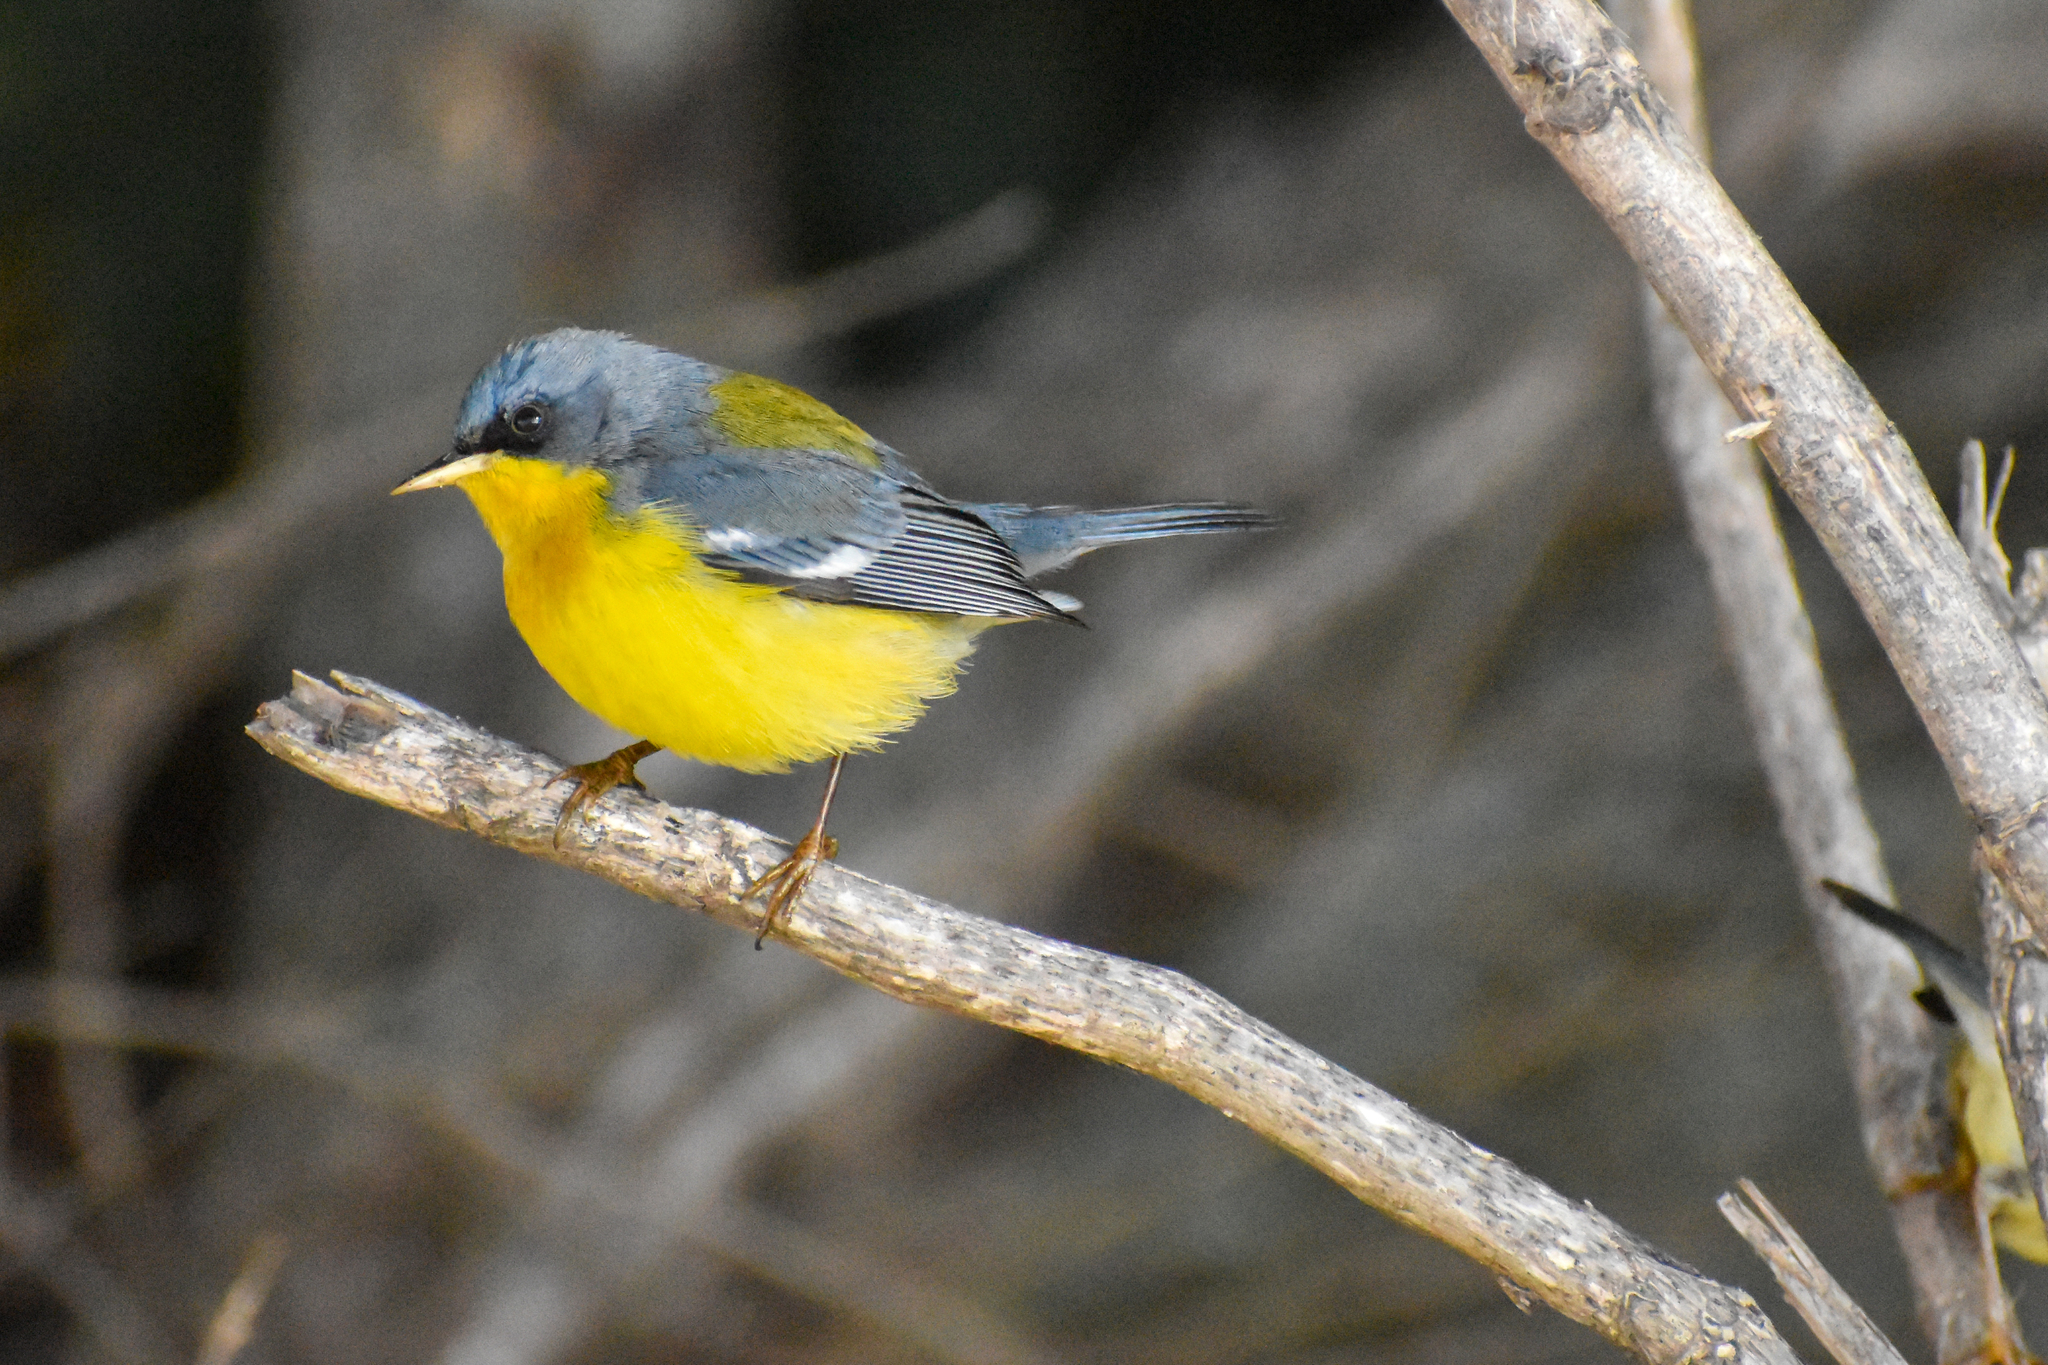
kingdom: Animalia
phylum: Chordata
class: Aves
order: Passeriformes
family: Parulidae
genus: Setophaga
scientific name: Setophaga pitiayumi
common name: Tropical parula
